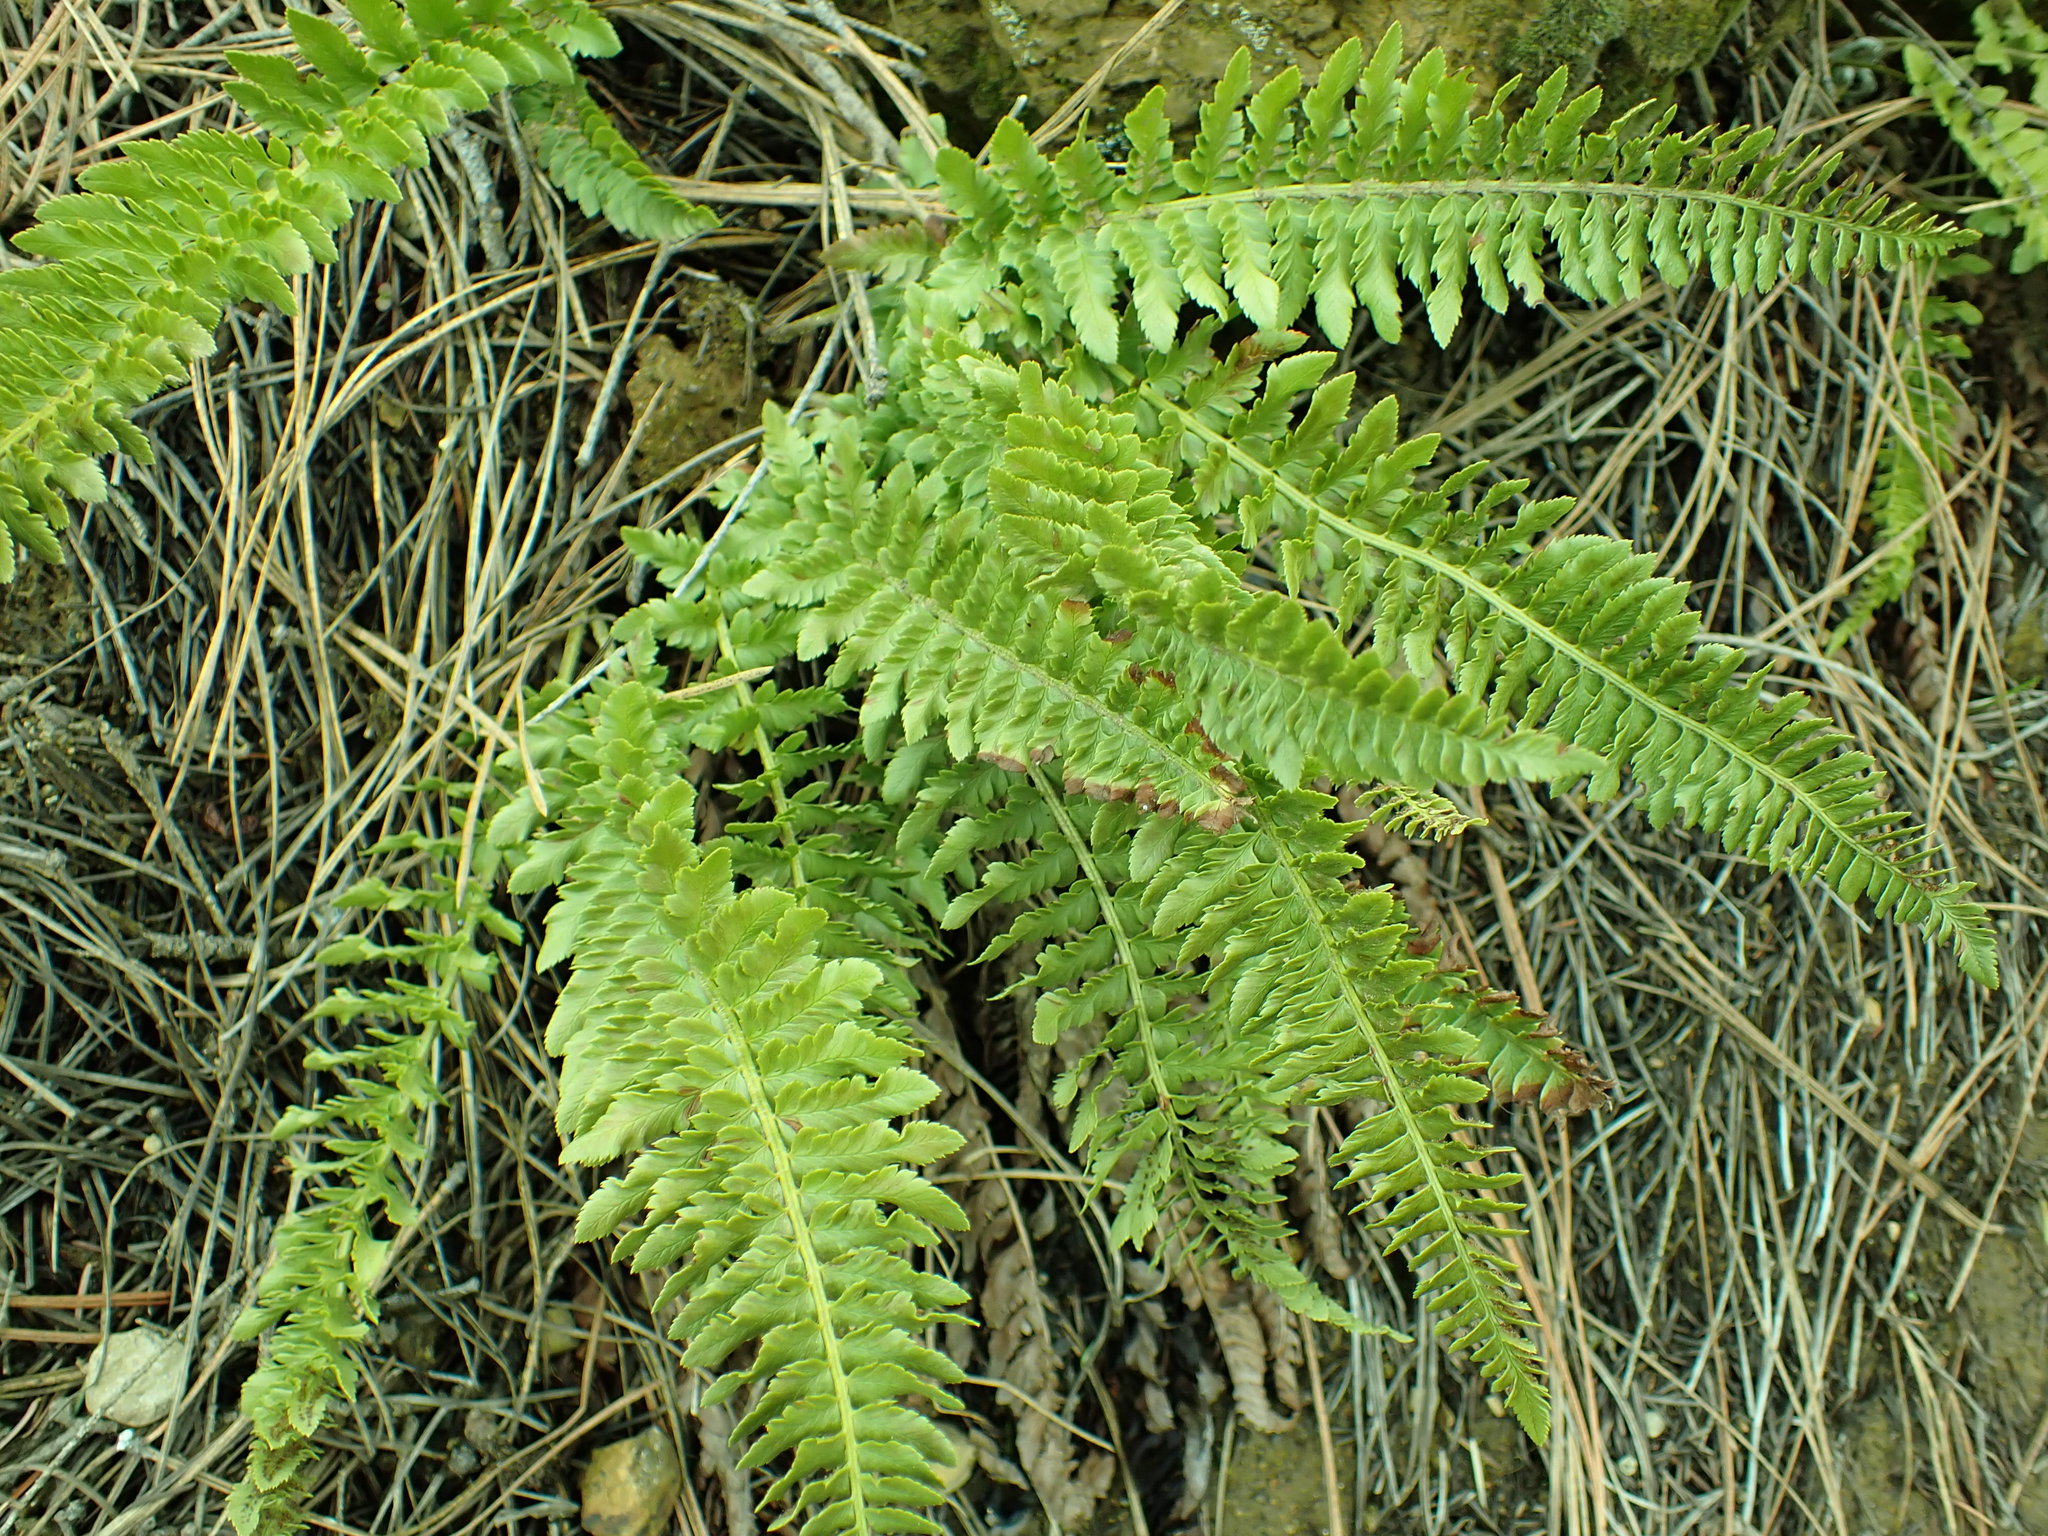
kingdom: Plantae
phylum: Tracheophyta
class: Polypodiopsida
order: Polypodiales
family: Dryopteridaceae
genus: Polystichum
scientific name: Polystichum scopulinum
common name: Eaton's shield fern
